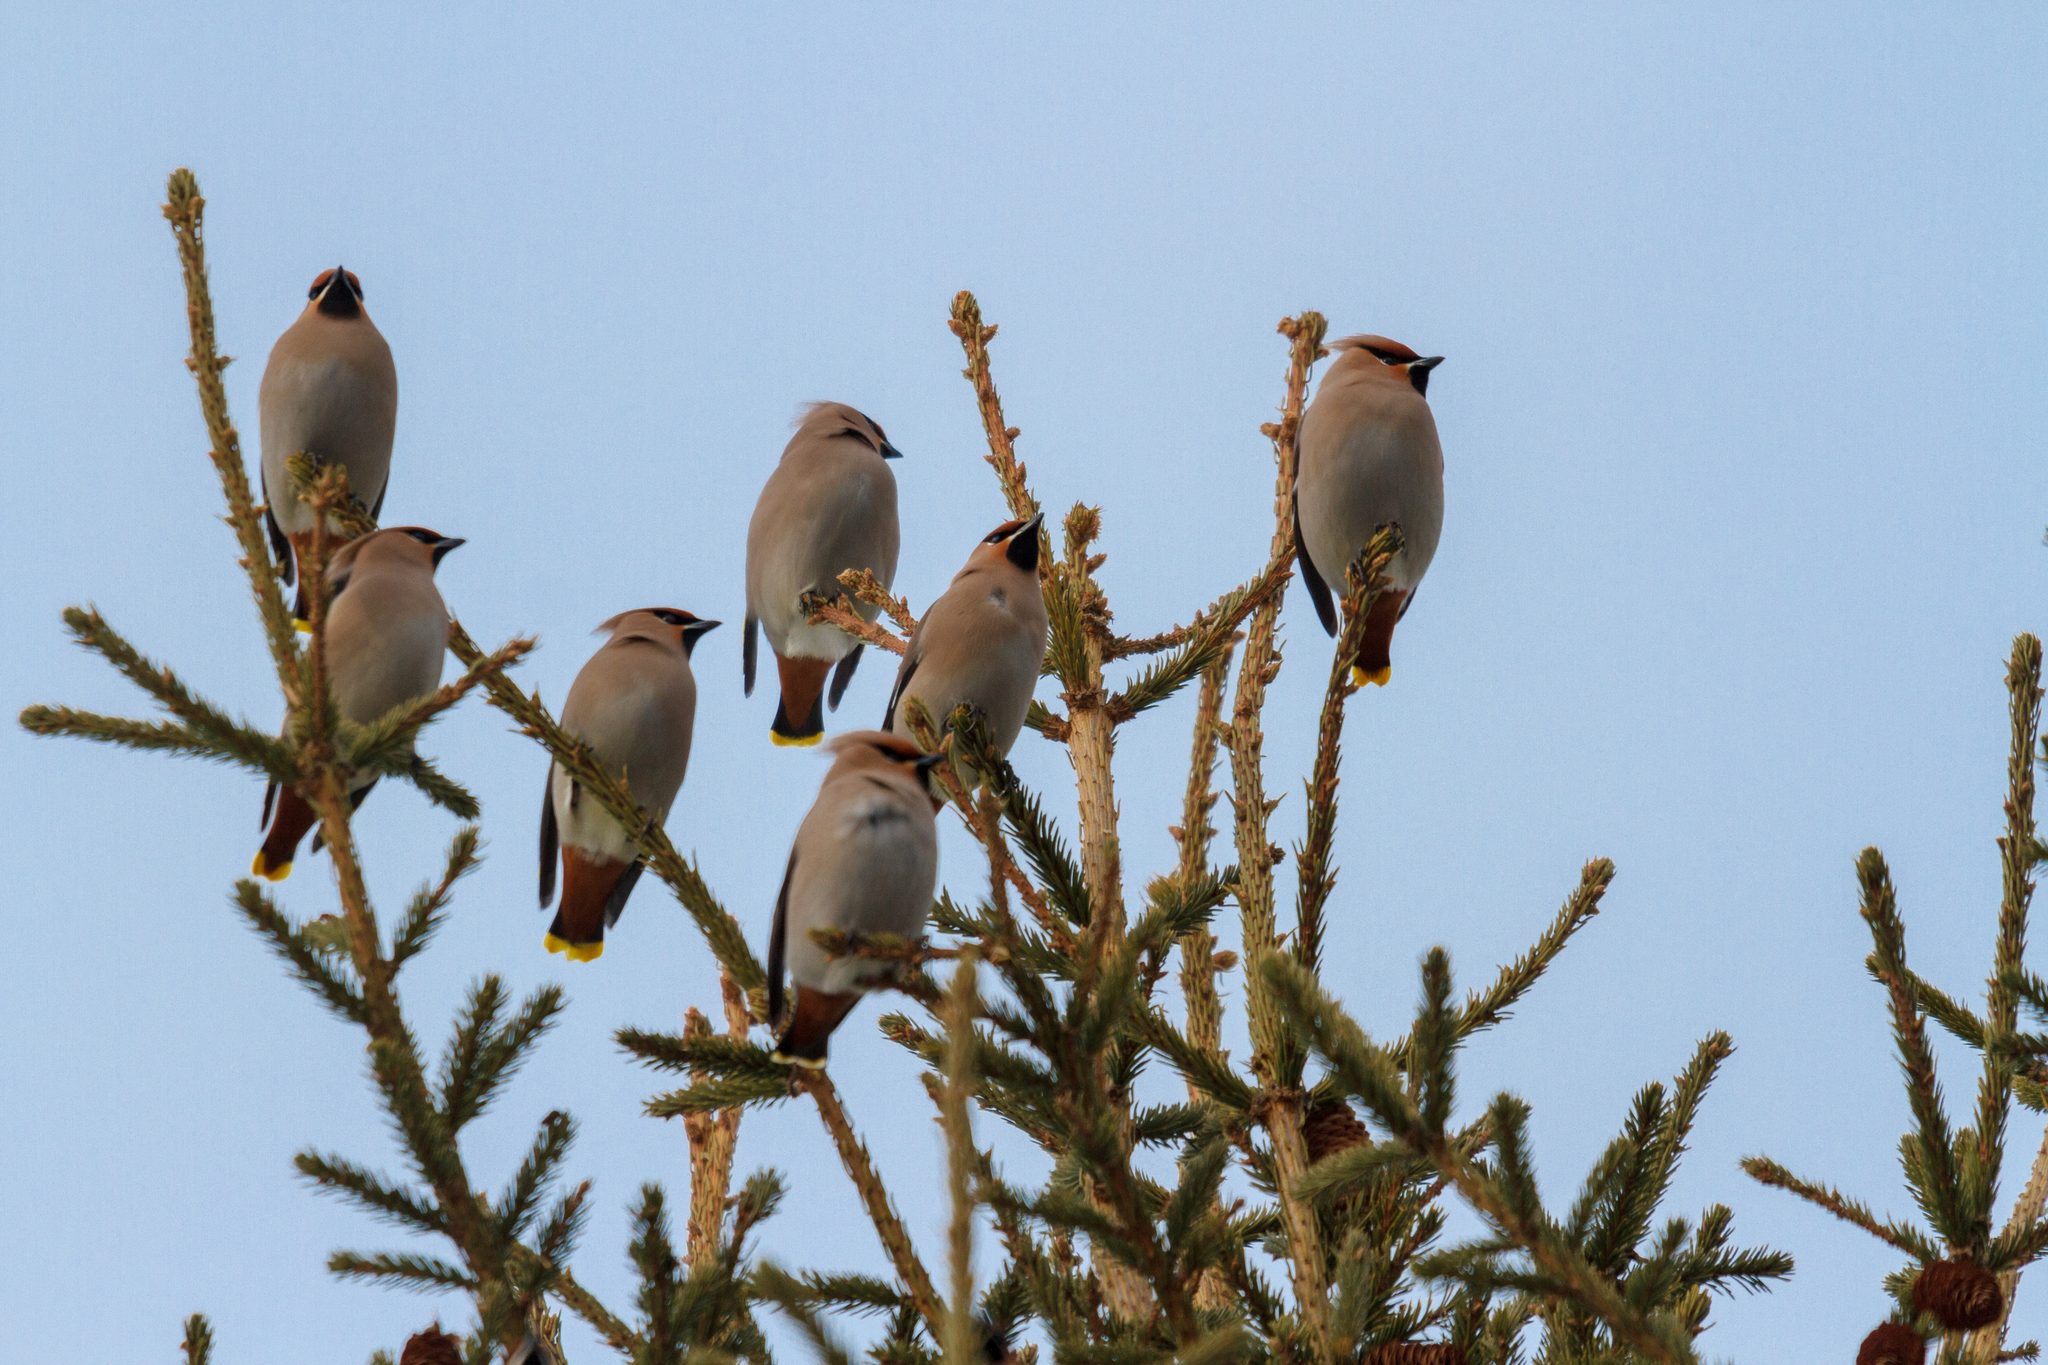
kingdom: Animalia
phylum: Chordata
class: Aves
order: Passeriformes
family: Bombycillidae
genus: Bombycilla
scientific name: Bombycilla garrulus
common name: Bohemian waxwing
